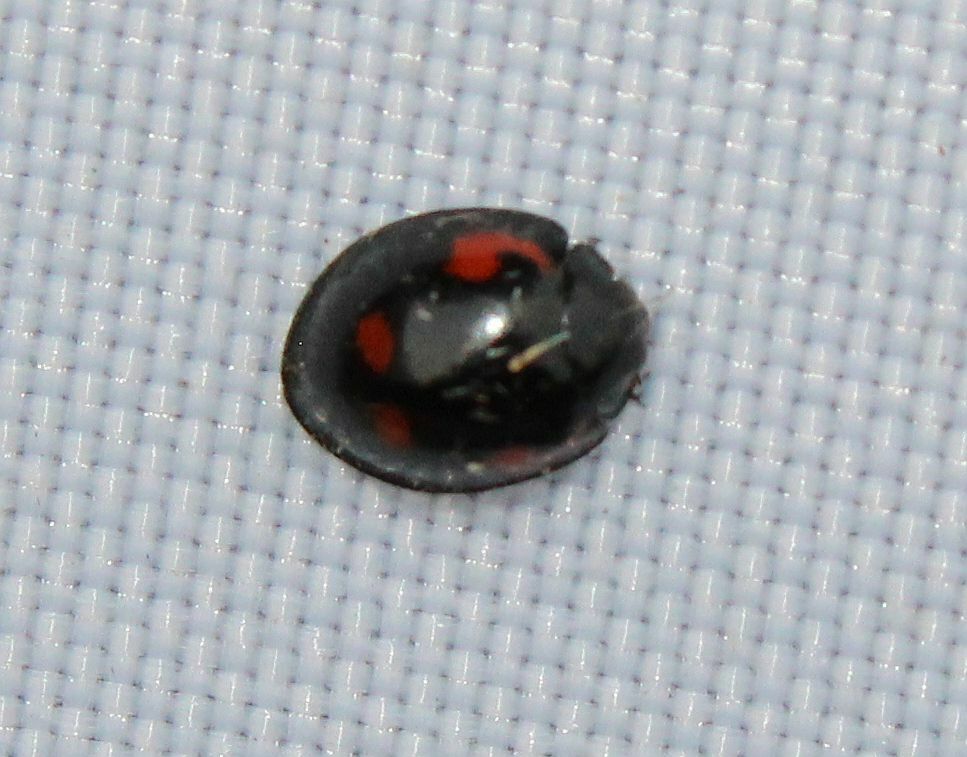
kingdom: Animalia
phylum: Arthropoda
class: Insecta
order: Coleoptera
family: Coccinellidae
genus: Brumus
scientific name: Brumus quadripustulatus
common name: Ladybird beetle
